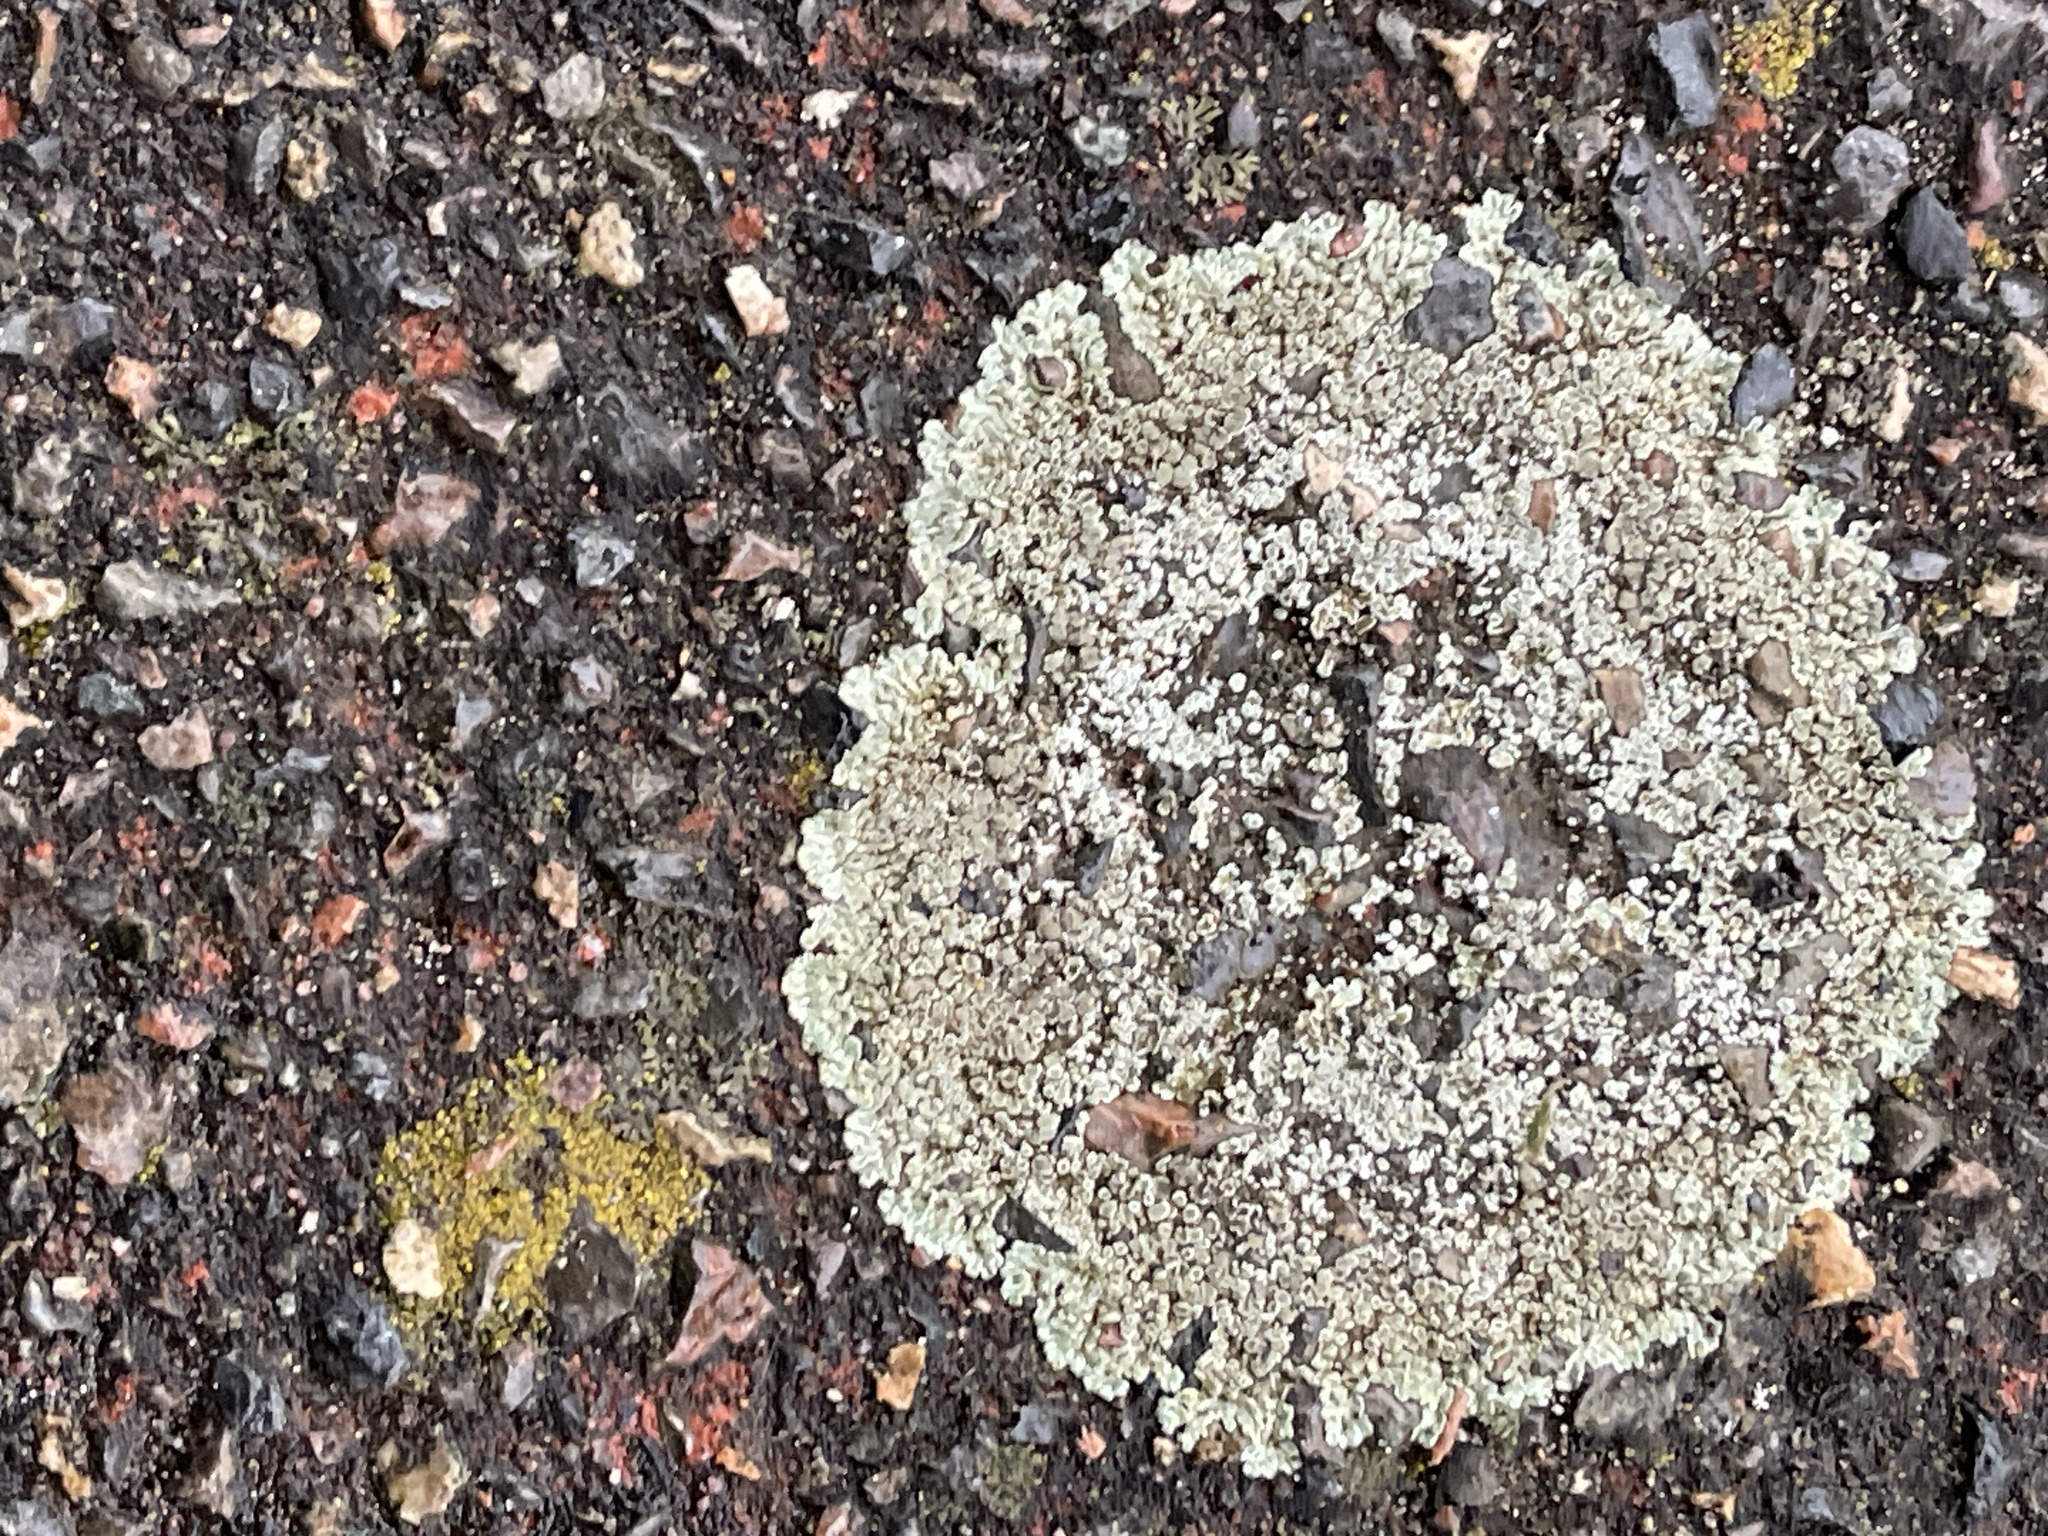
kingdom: Fungi
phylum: Ascomycota
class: Lecanoromycetes
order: Lecanorales
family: Lecanoraceae
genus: Protoparmeliopsis
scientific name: Protoparmeliopsis muralis
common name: Stonewall rim lichen
